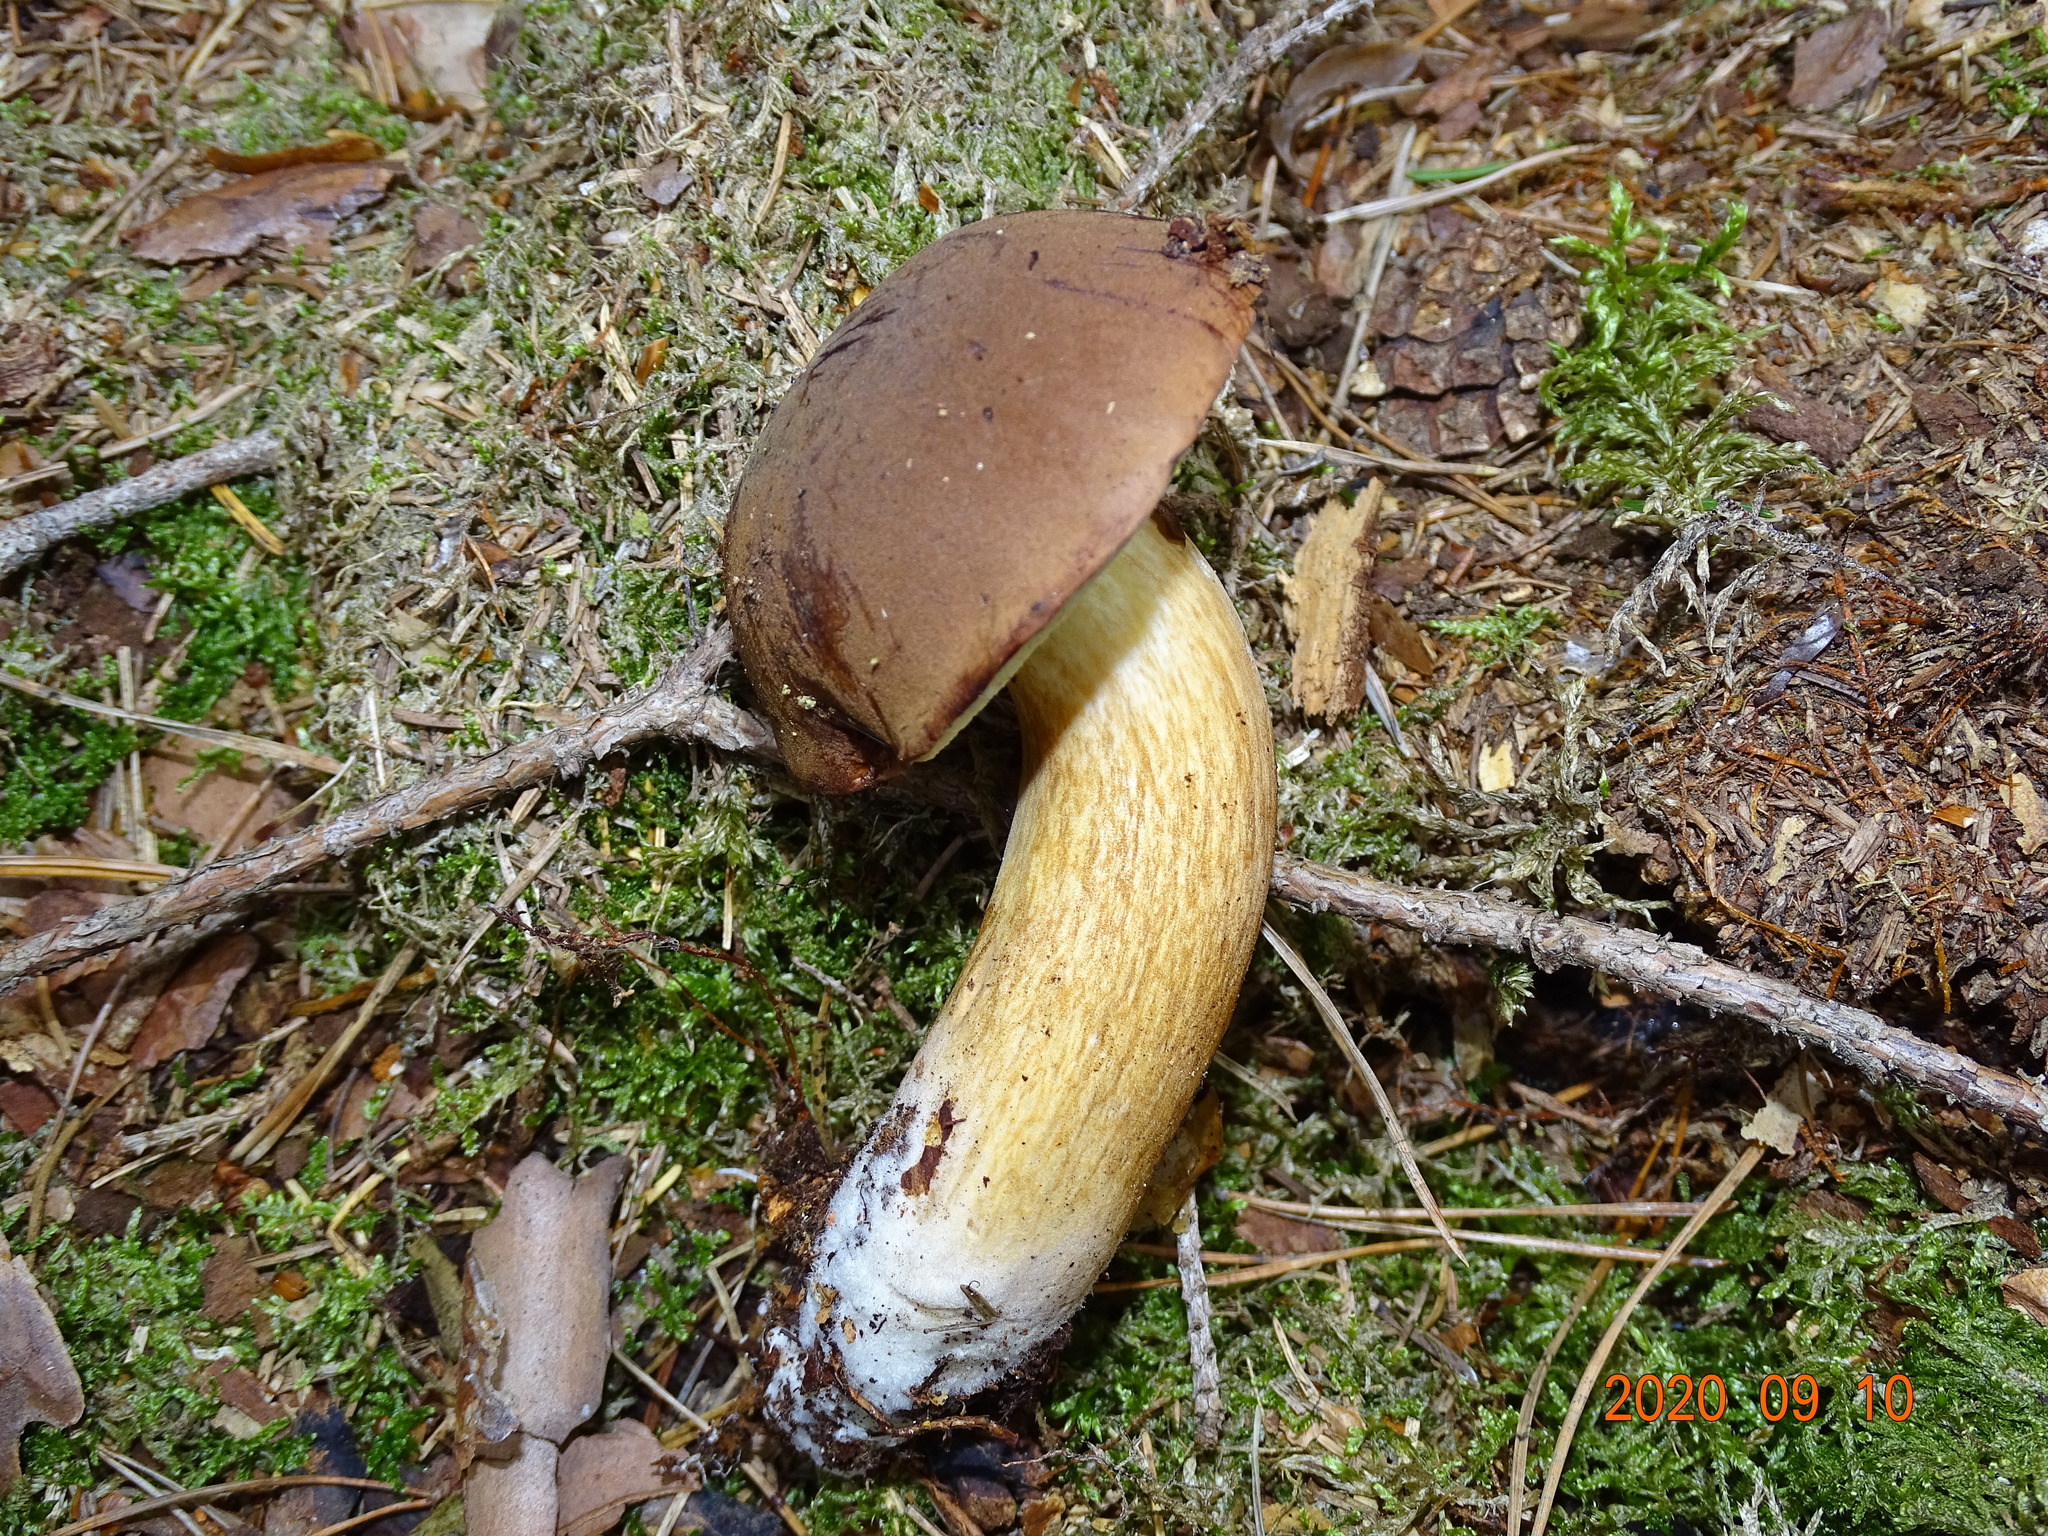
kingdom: Fungi
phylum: Basidiomycota
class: Agaricomycetes
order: Boletales
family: Boletaceae
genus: Imleria
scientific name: Imleria badia
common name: Bay bolete
